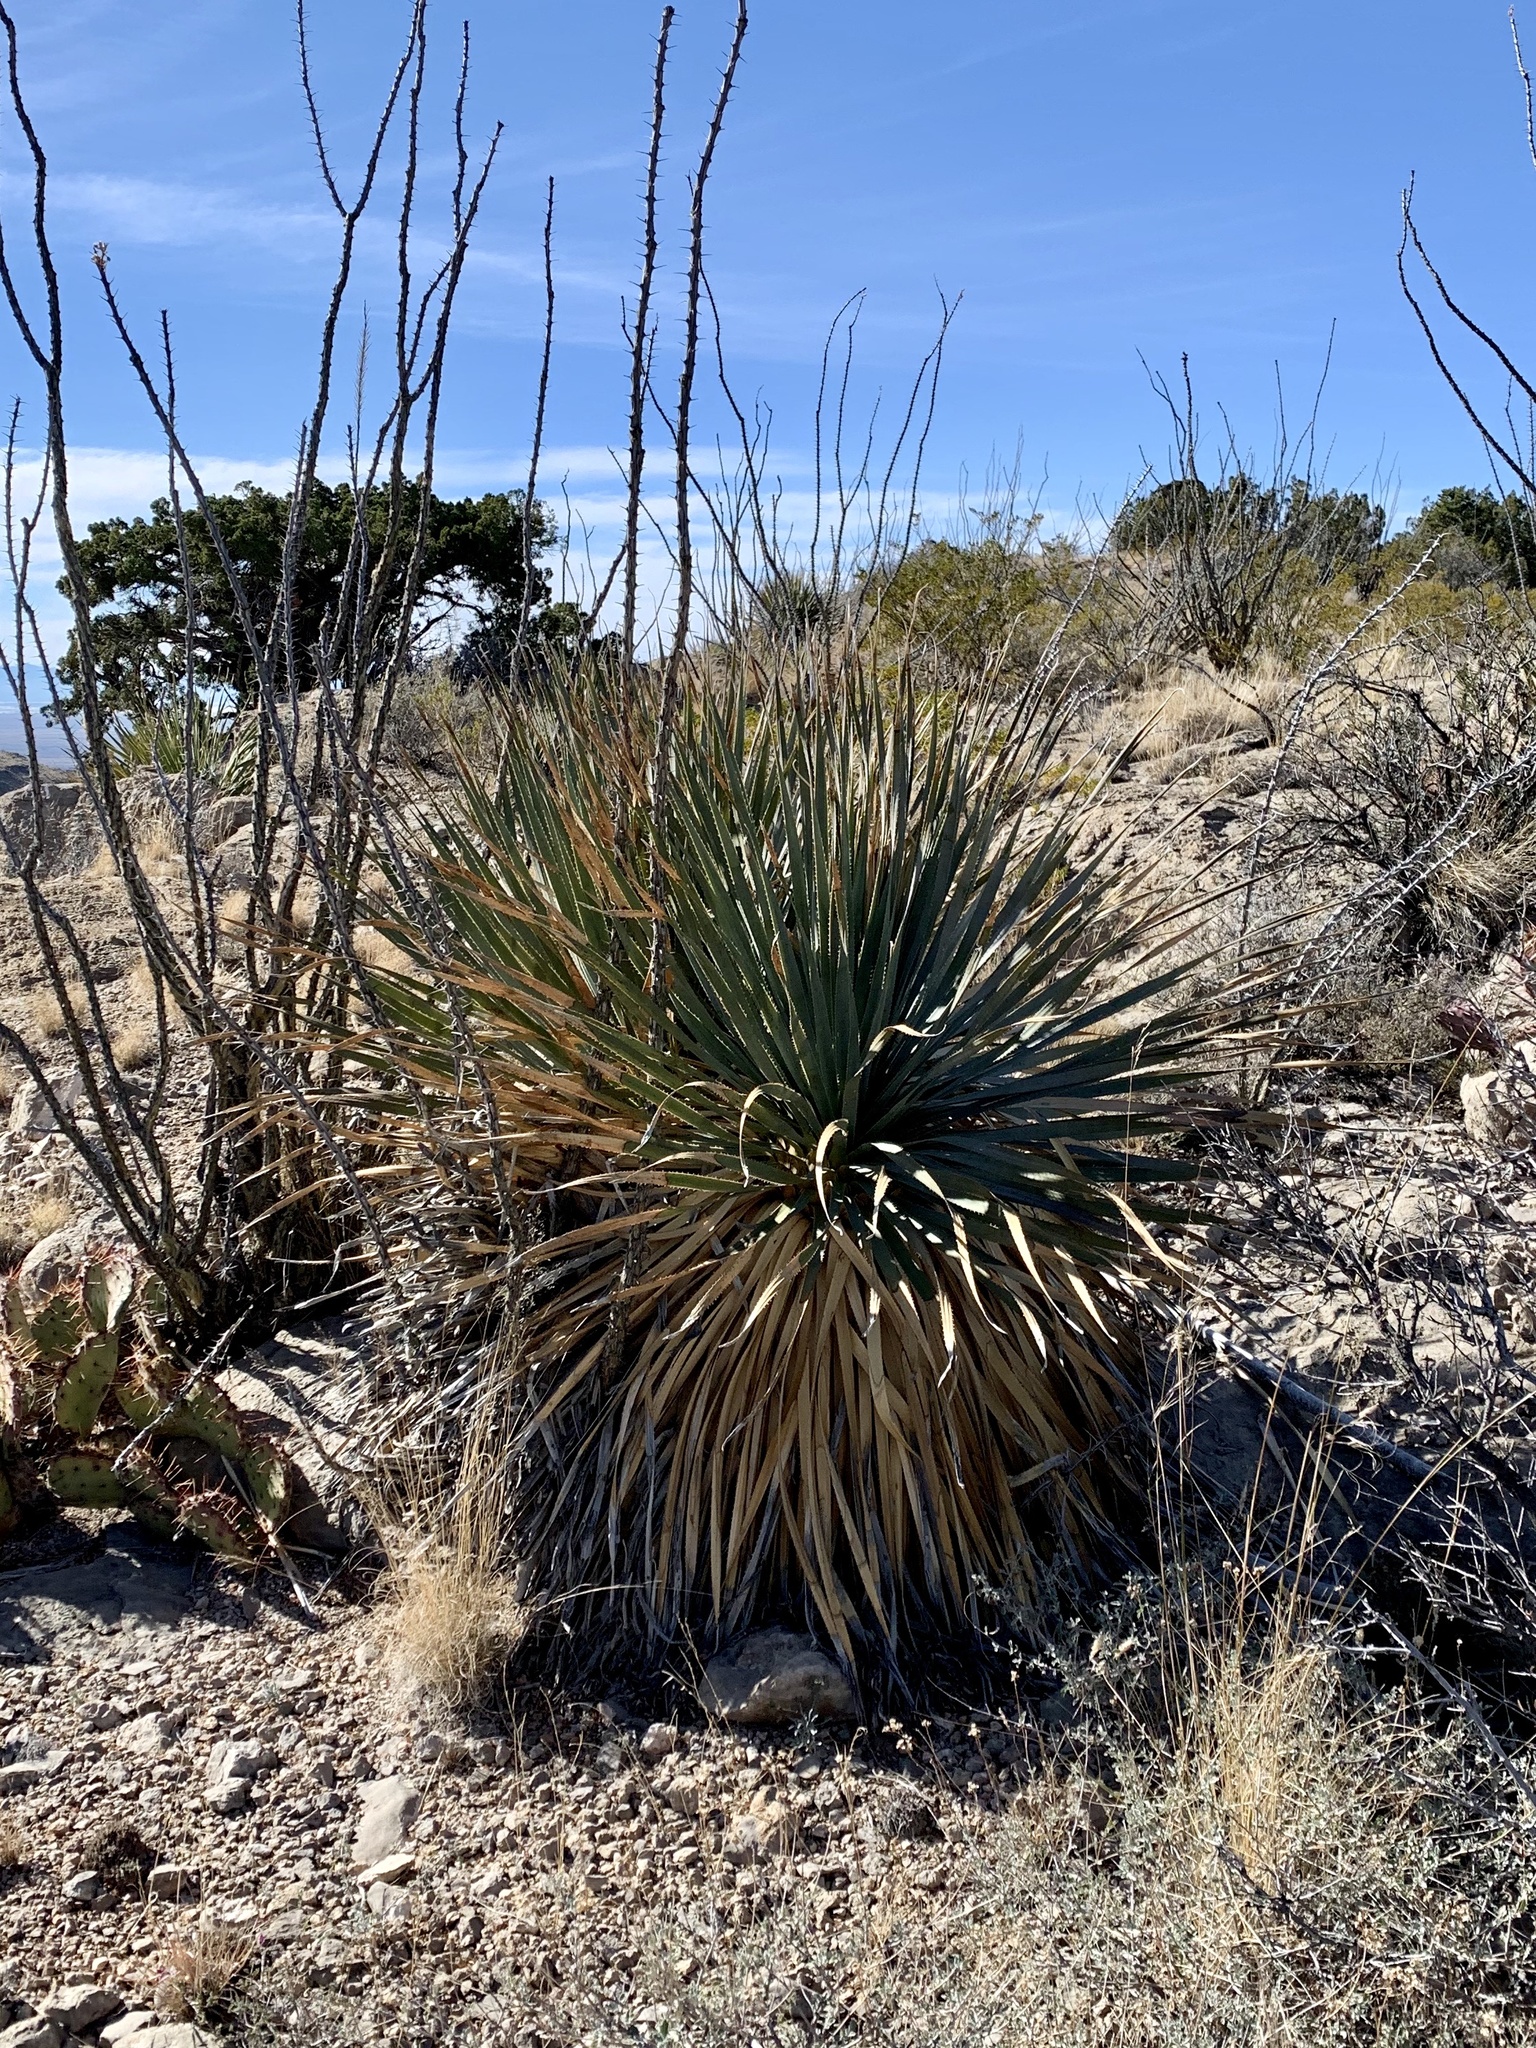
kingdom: Plantae
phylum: Tracheophyta
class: Liliopsida
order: Asparagales
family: Asparagaceae
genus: Dasylirion
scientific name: Dasylirion wheeleri
